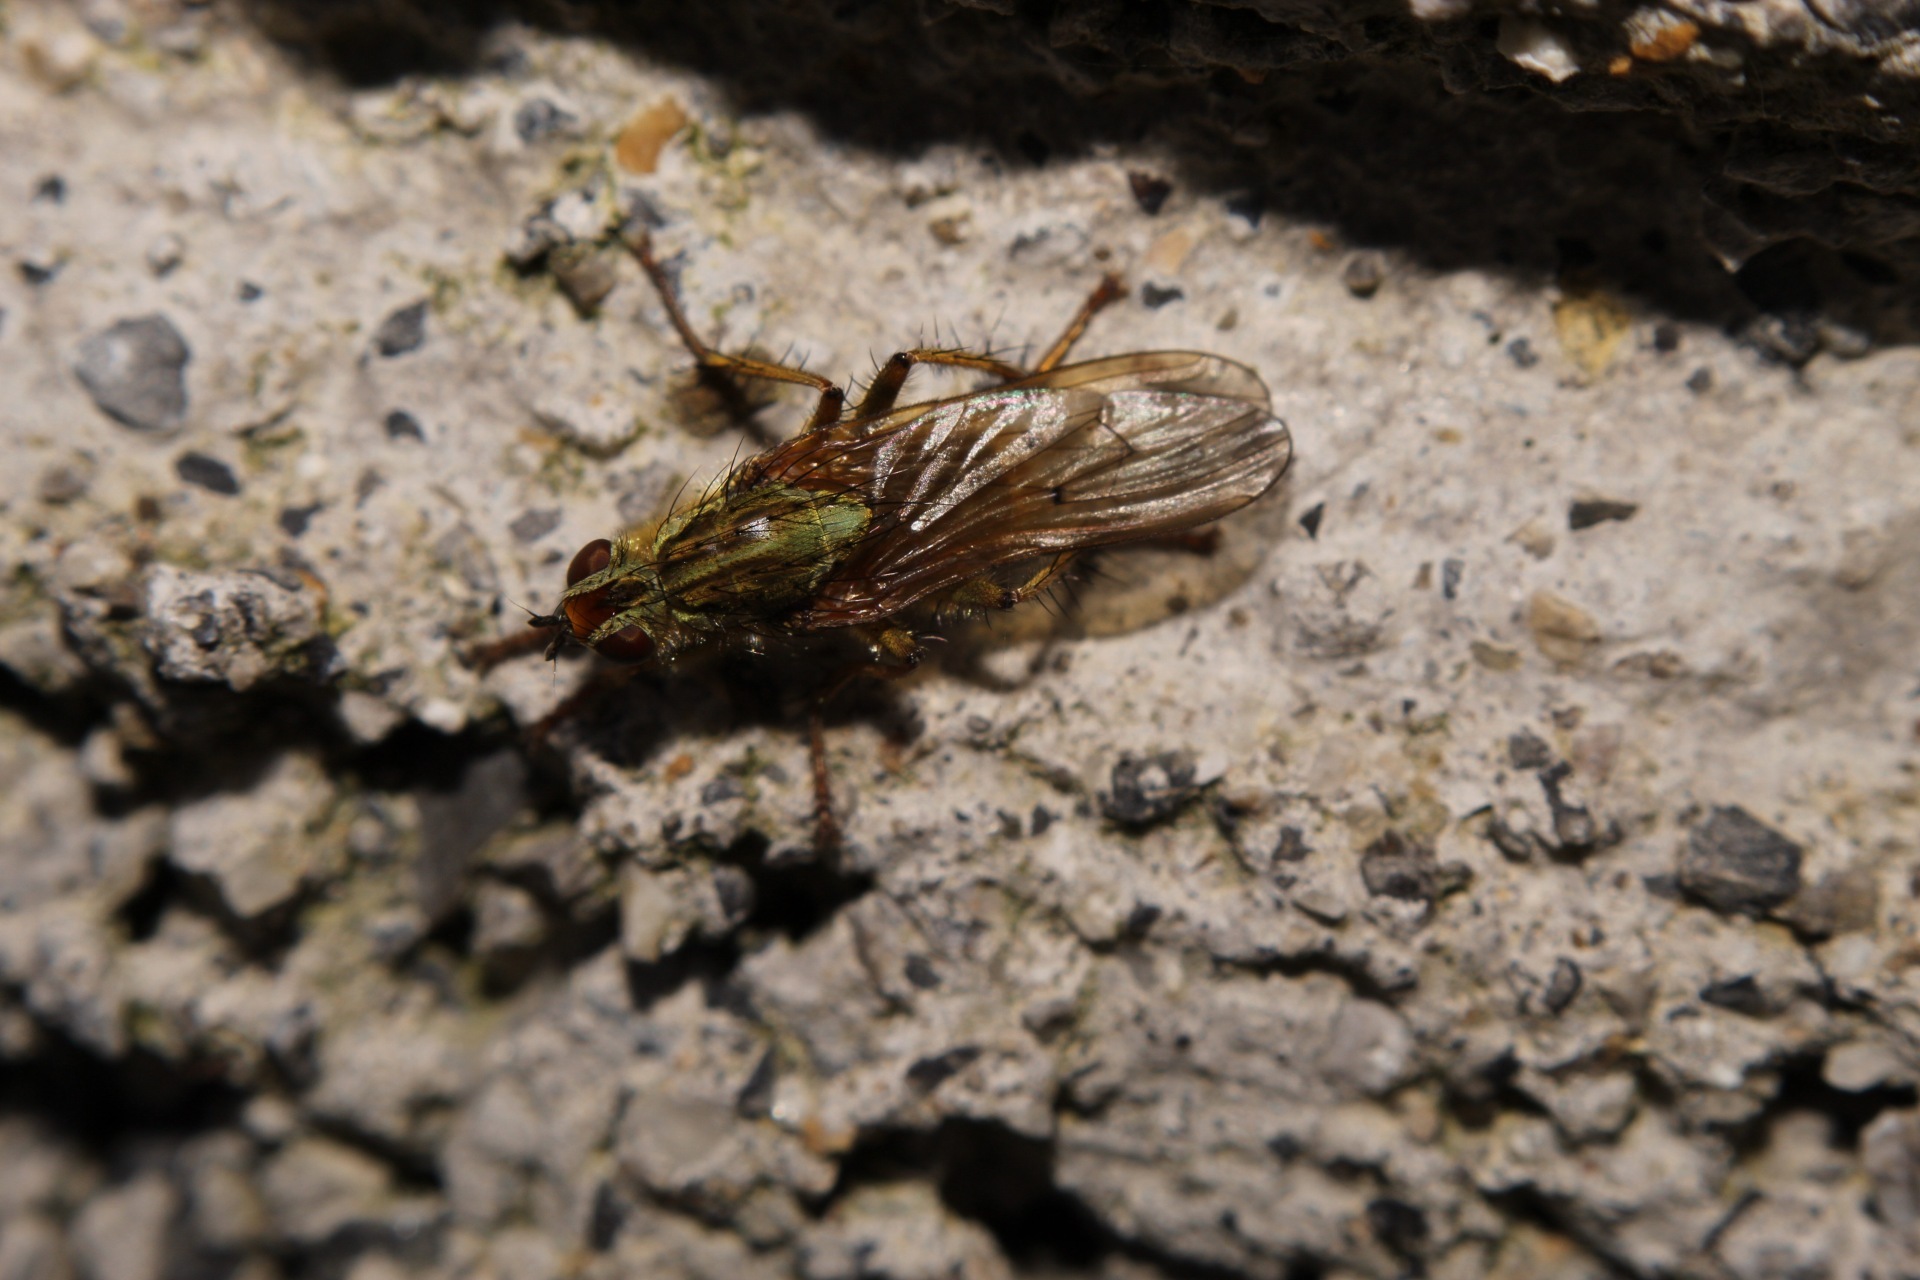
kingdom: Animalia
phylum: Arthropoda
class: Insecta
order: Diptera
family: Scathophagidae
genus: Scathophaga
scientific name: Scathophaga stercoraria
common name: Yellow dung fly
